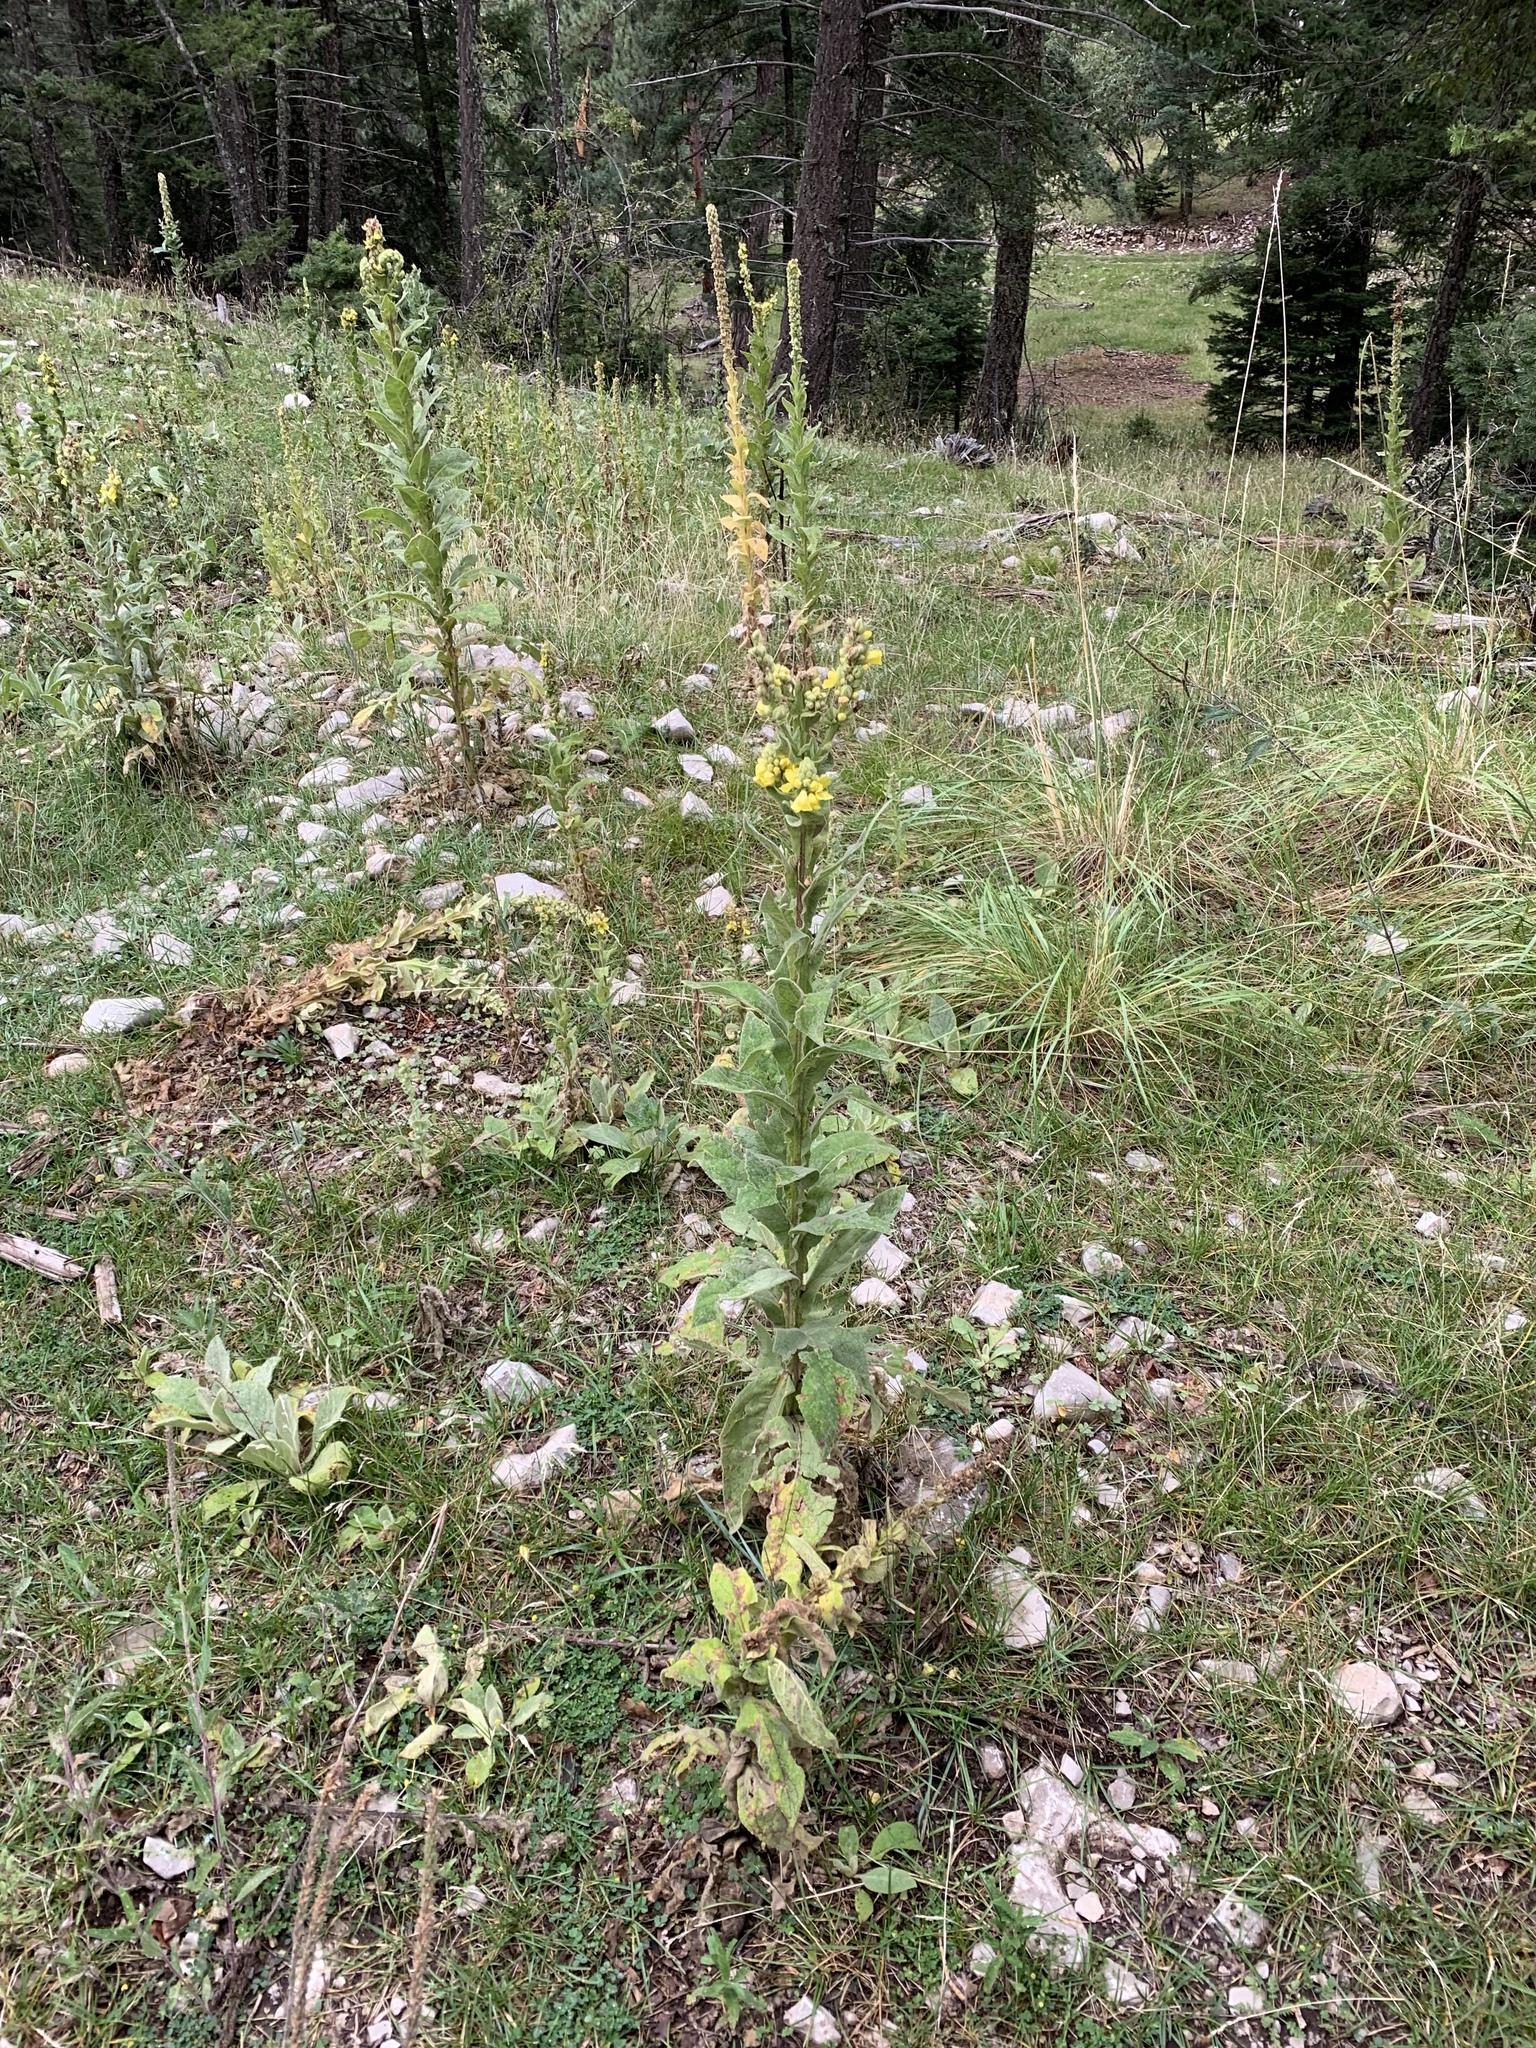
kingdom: Plantae
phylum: Tracheophyta
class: Magnoliopsida
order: Lamiales
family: Scrophulariaceae
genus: Verbascum
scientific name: Verbascum thapsus
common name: Common mullein
